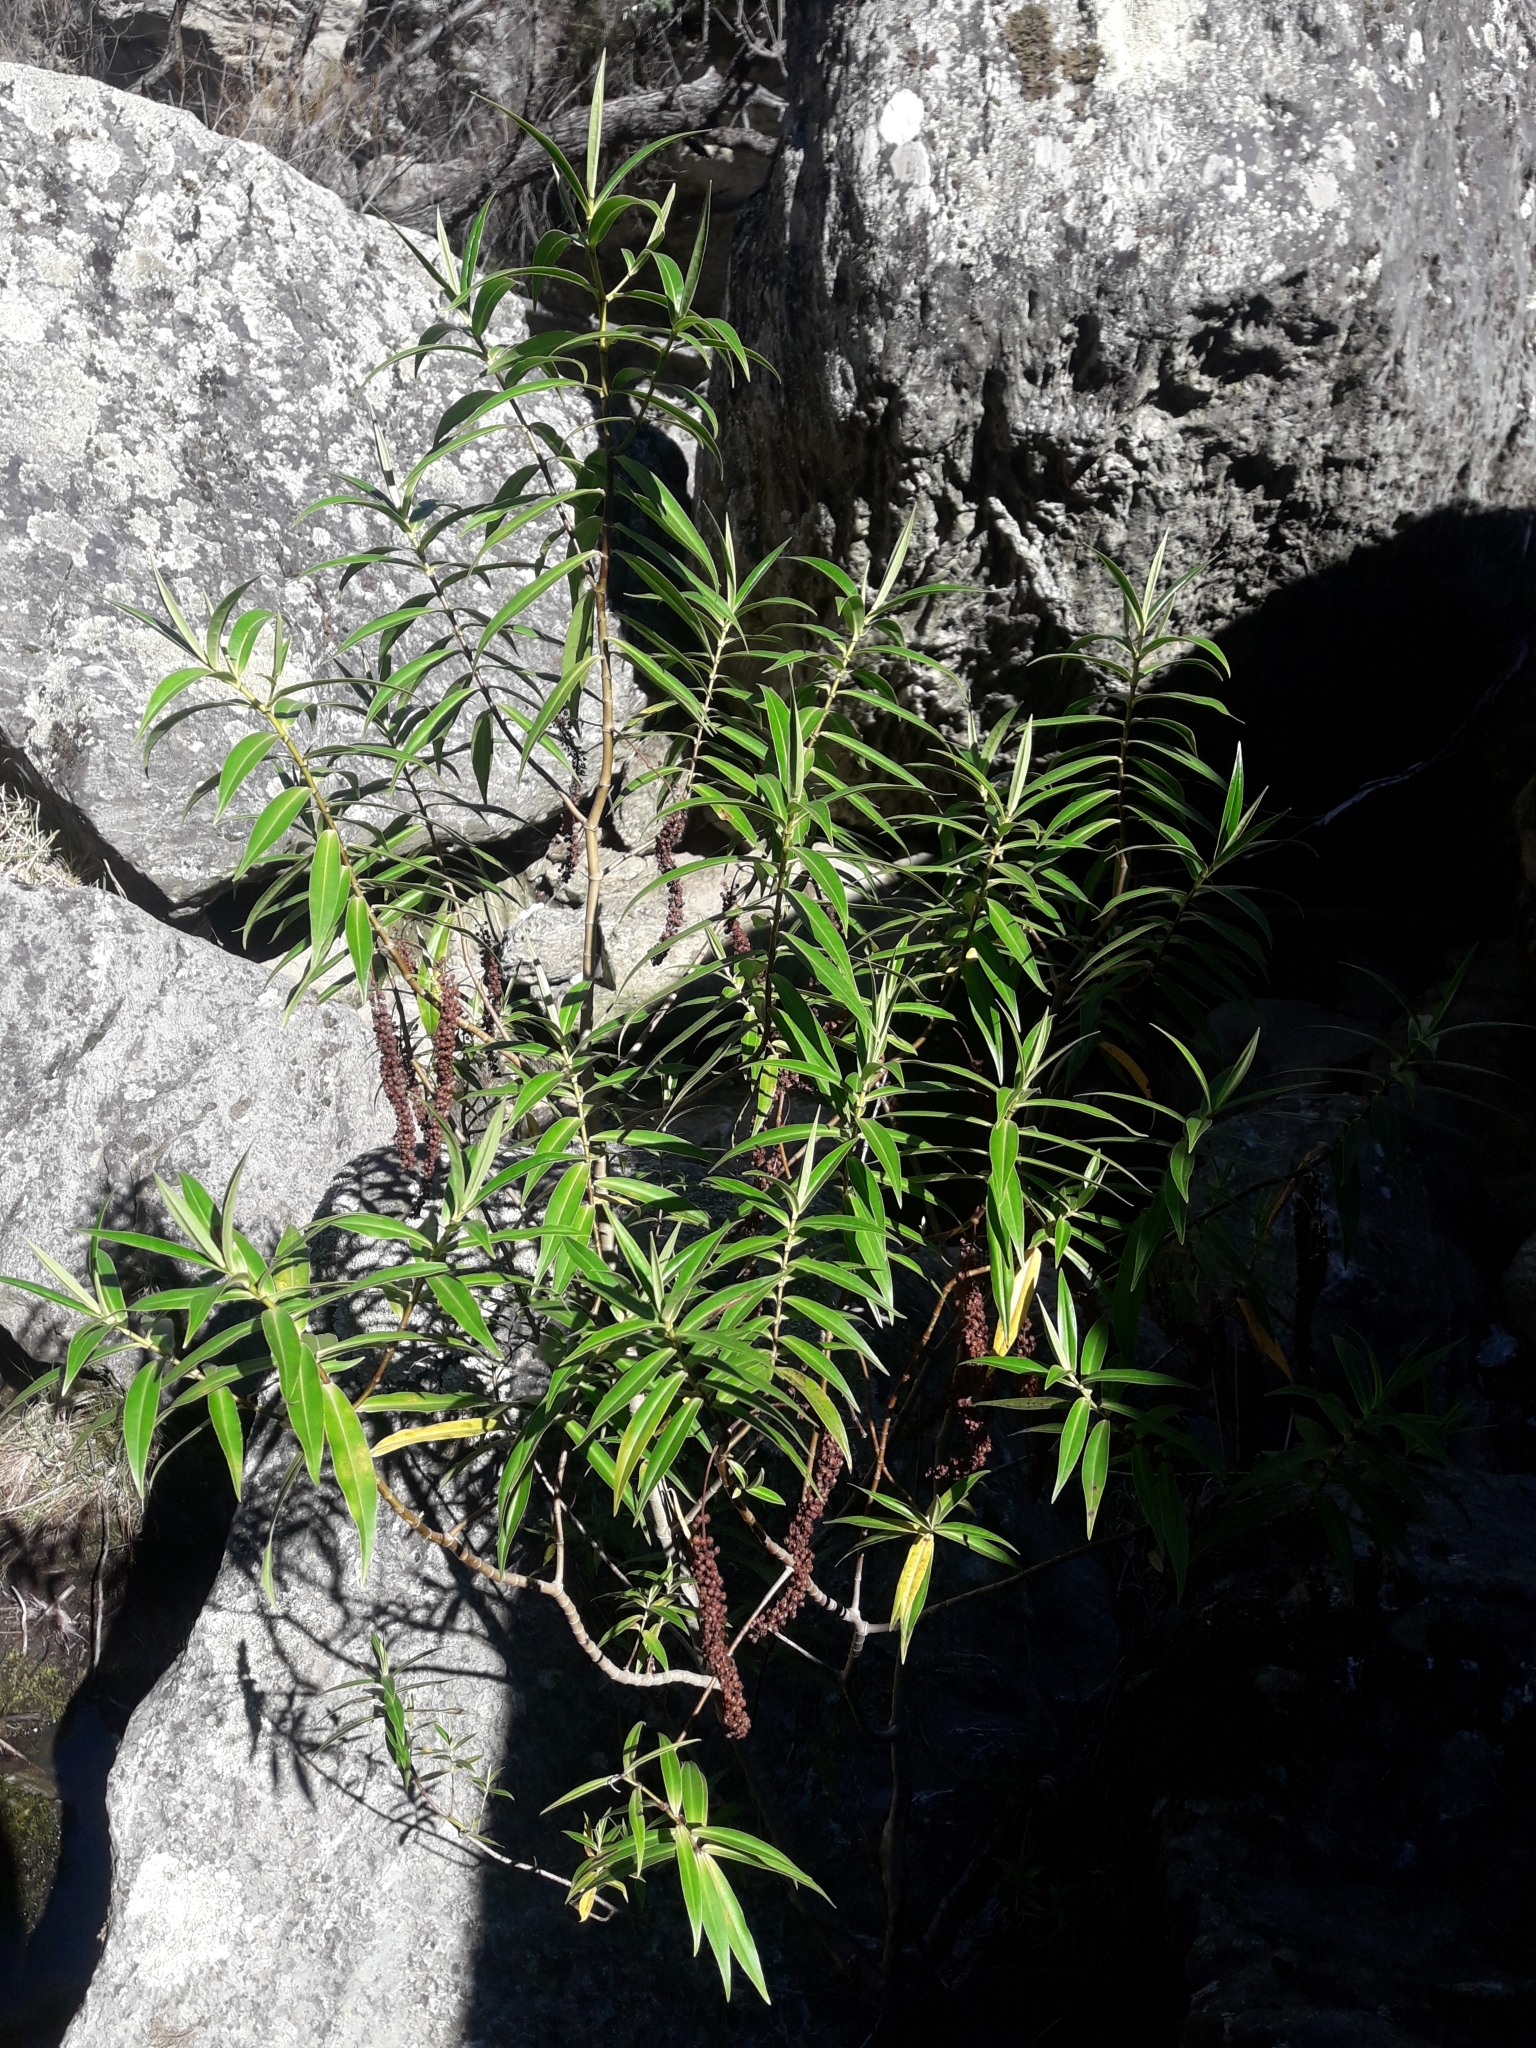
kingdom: Plantae
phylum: Tracheophyta
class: Magnoliopsida
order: Lamiales
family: Plantaginaceae
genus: Veronica
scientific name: Veronica salicifolia
